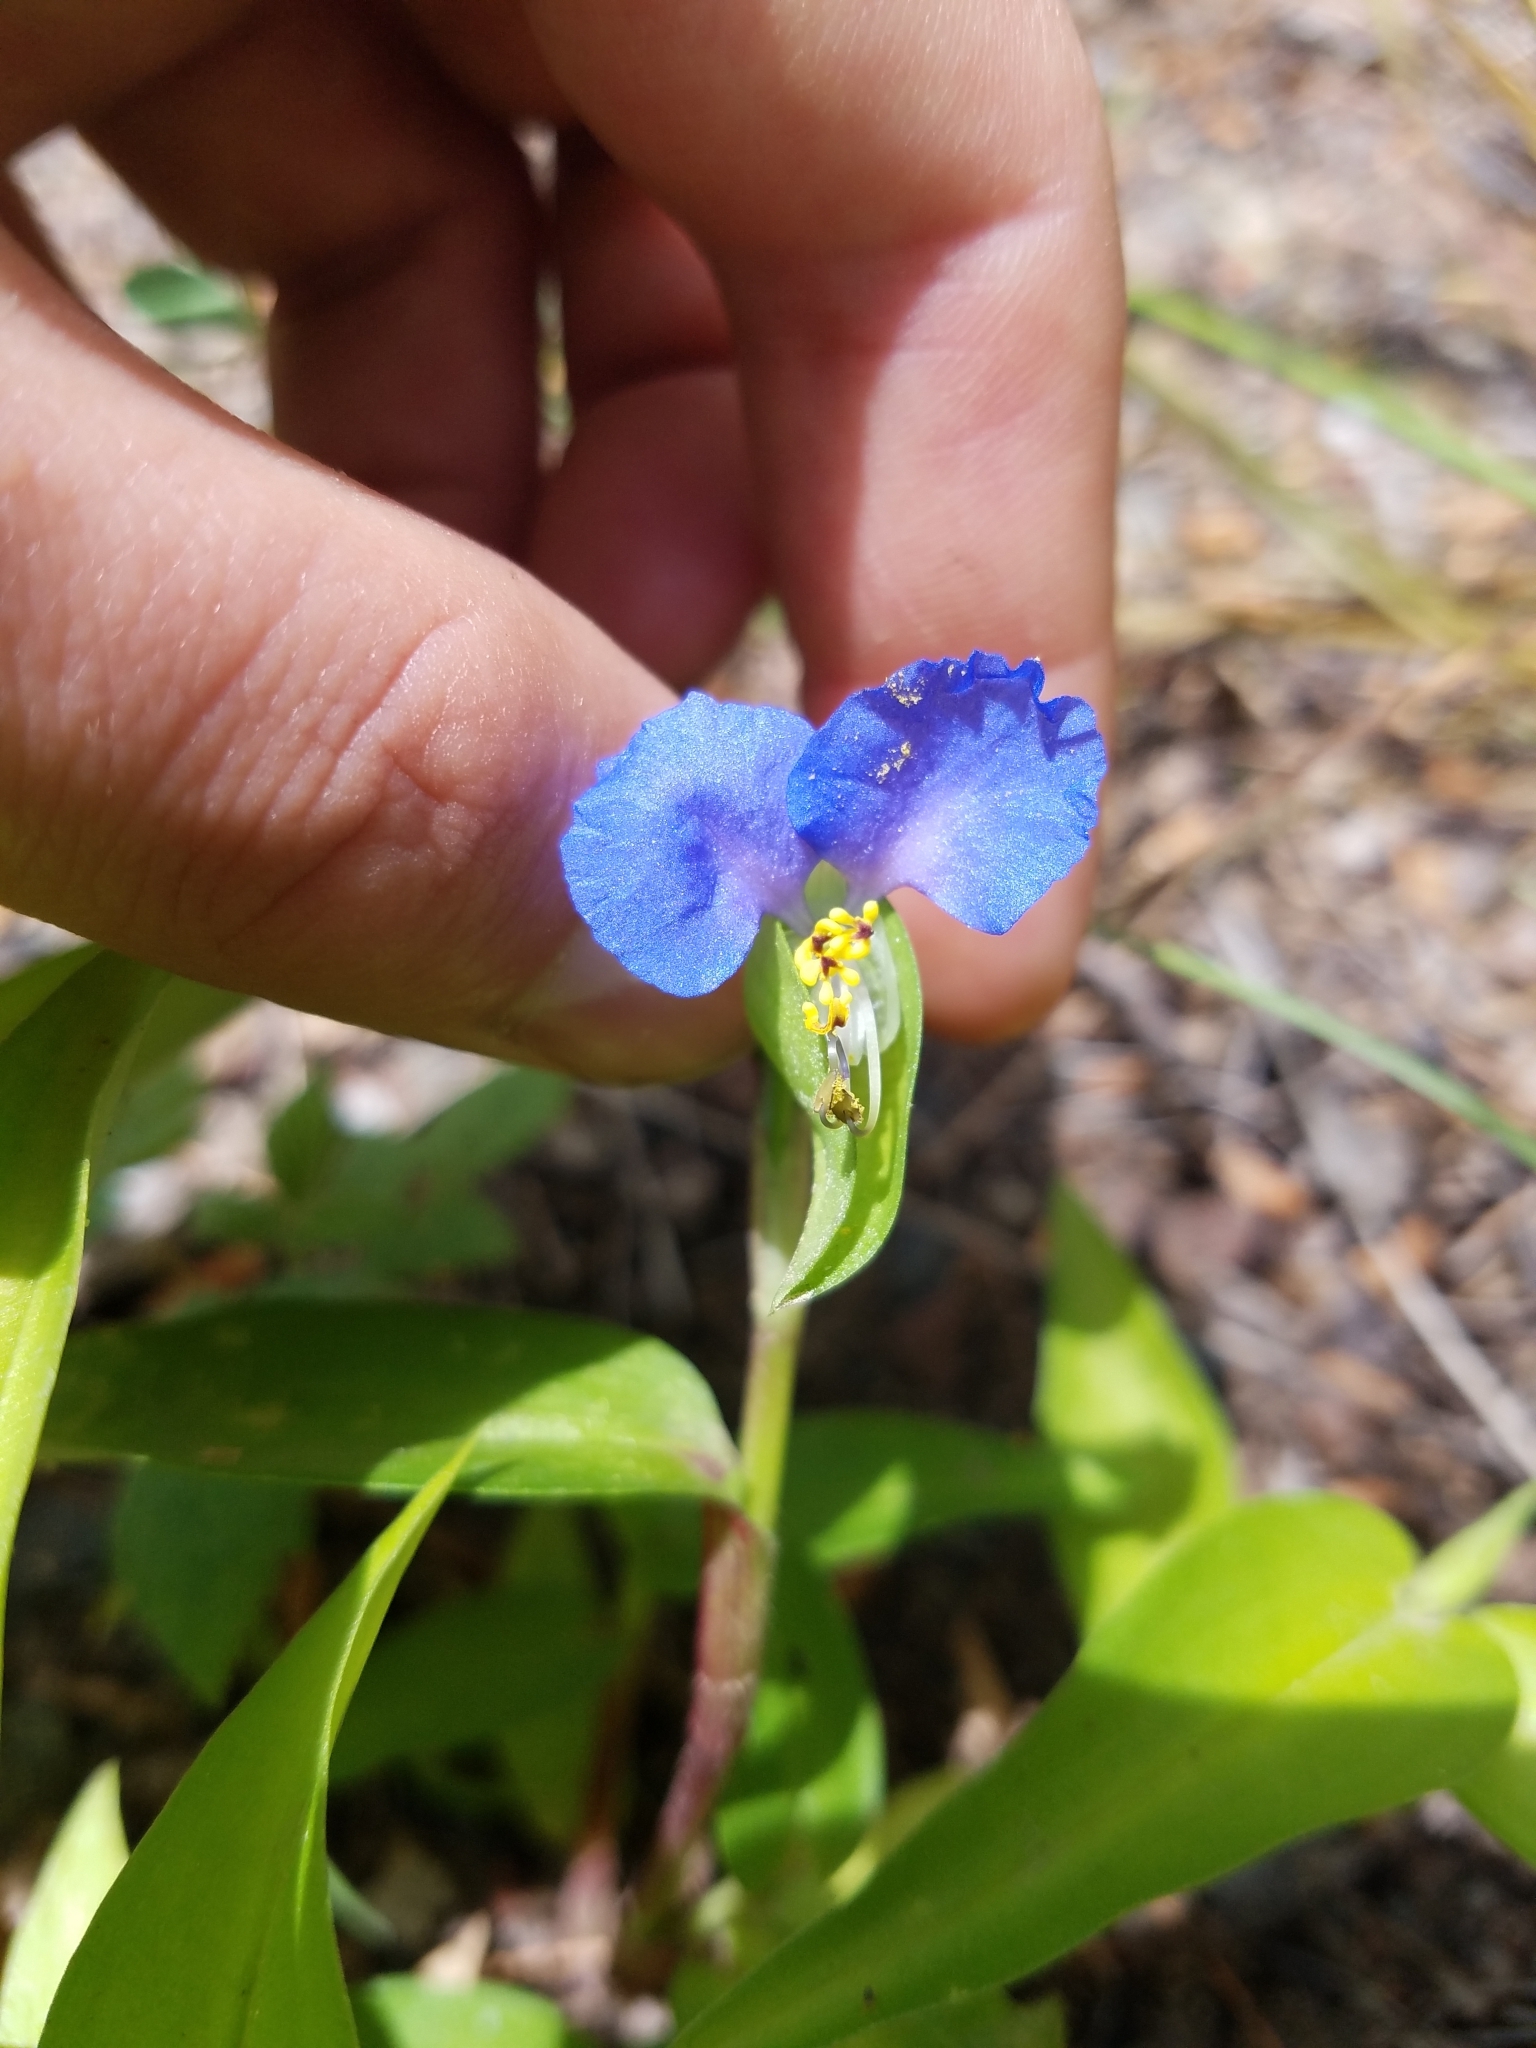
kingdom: Plantae
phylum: Tracheophyta
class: Liliopsida
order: Commelinales
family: Commelinaceae
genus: Commelina
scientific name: Commelina communis
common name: Asiatic dayflower
